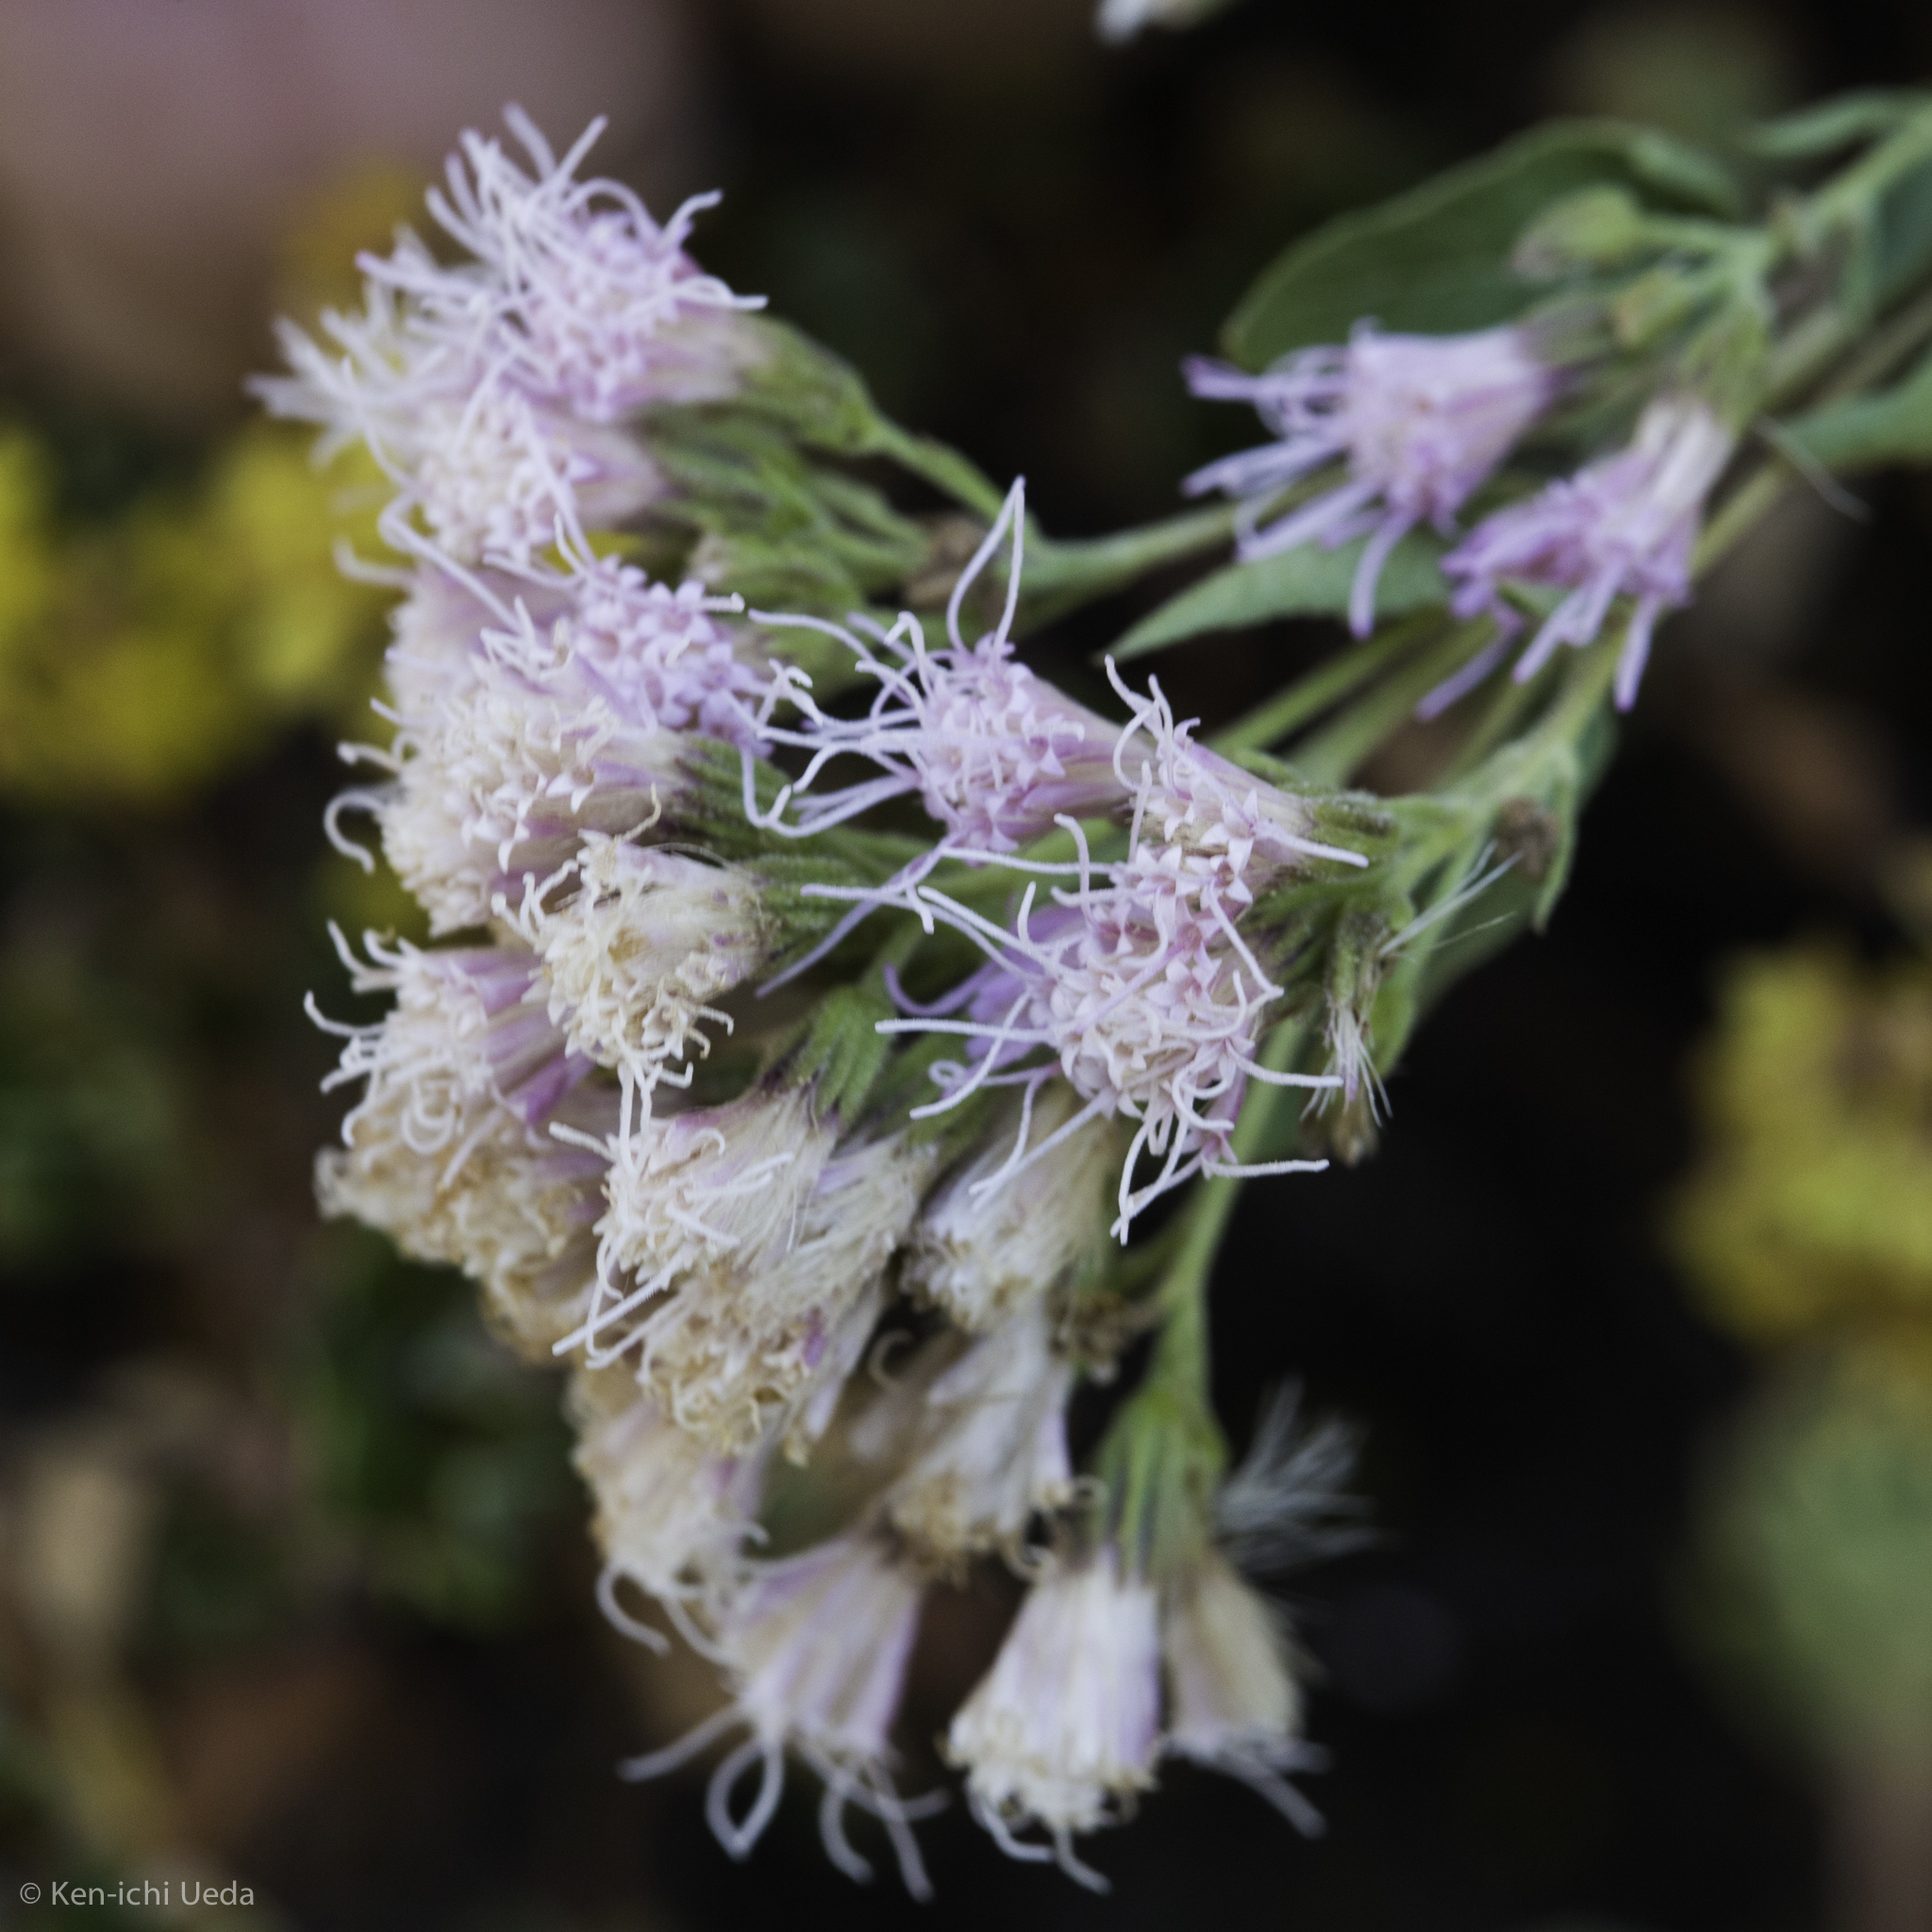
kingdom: Plantae
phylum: Tracheophyta
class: Magnoliopsida
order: Asterales
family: Asteraceae
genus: Ageratina
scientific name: Ageratina occidentalis
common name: Western snakeroot
